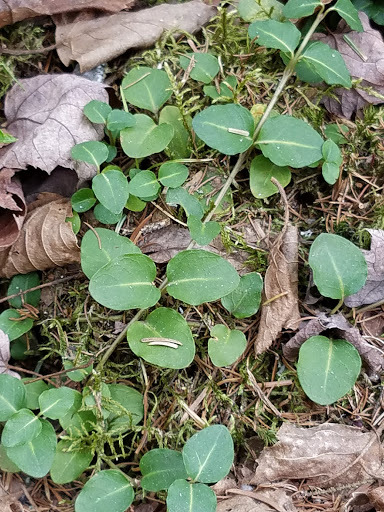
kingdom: Plantae
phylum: Tracheophyta
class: Magnoliopsida
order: Gentianales
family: Rubiaceae
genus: Mitchella
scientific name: Mitchella repens
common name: Partridge-berry
